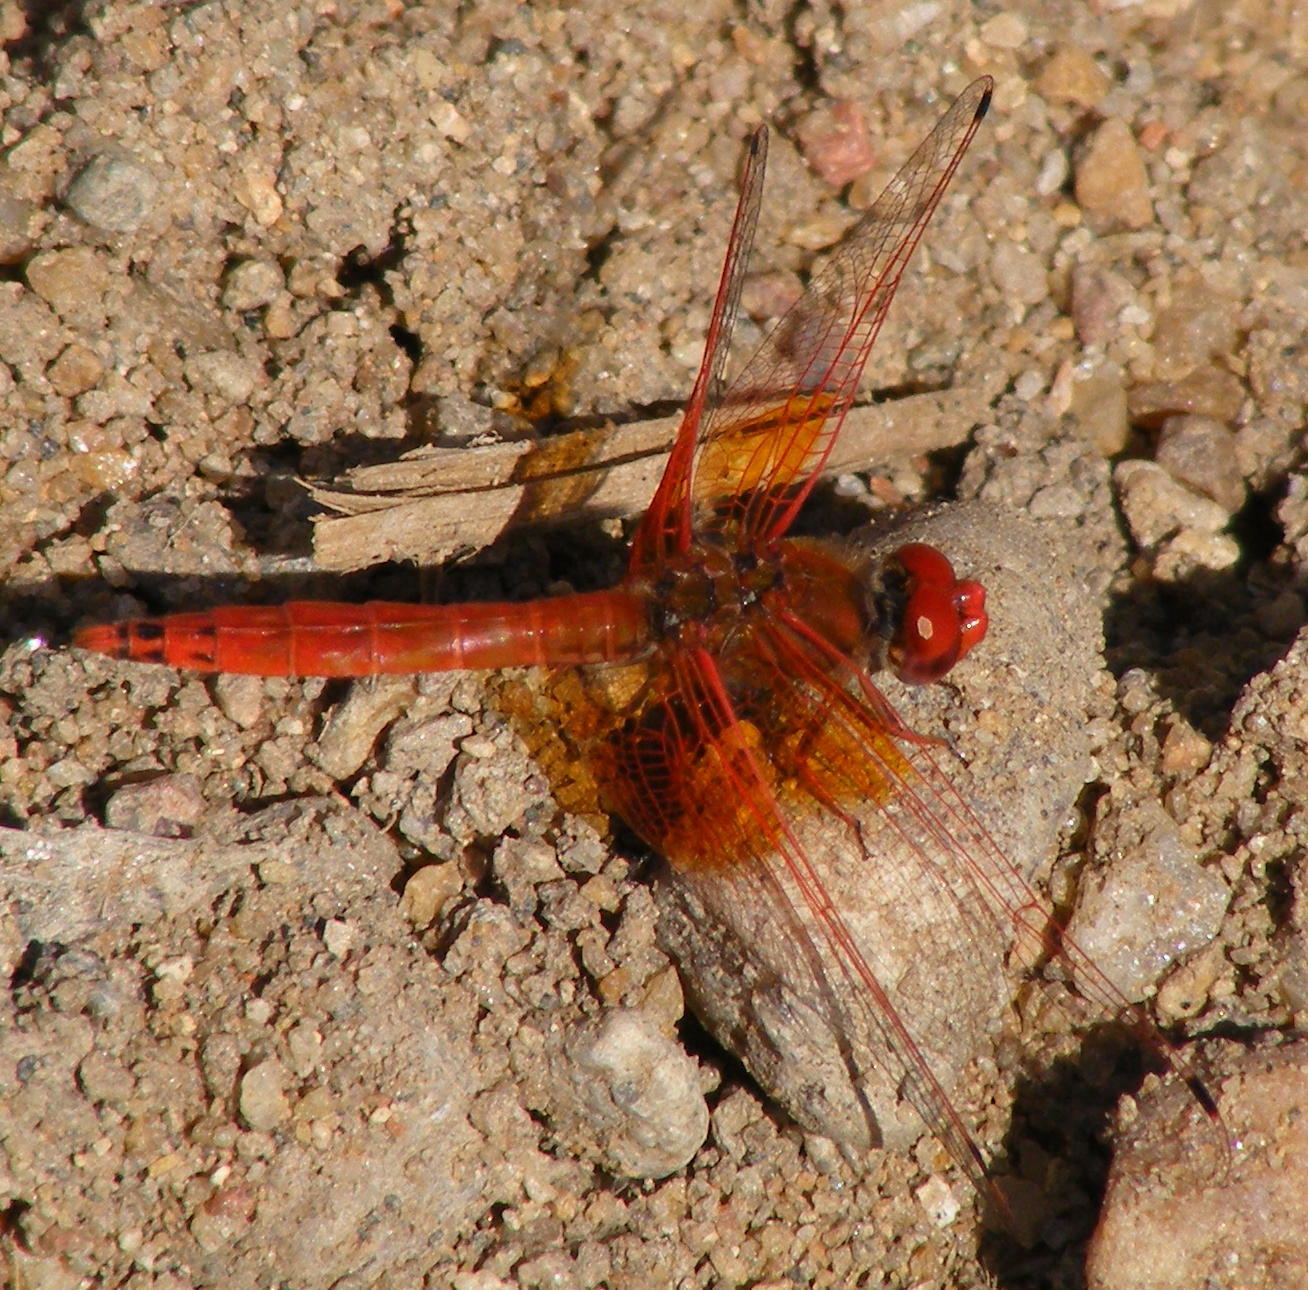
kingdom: Animalia
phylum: Arthropoda
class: Insecta
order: Odonata
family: Libellulidae
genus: Trithemis
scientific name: Trithemis kirbyi
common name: Kirby's dropwing
